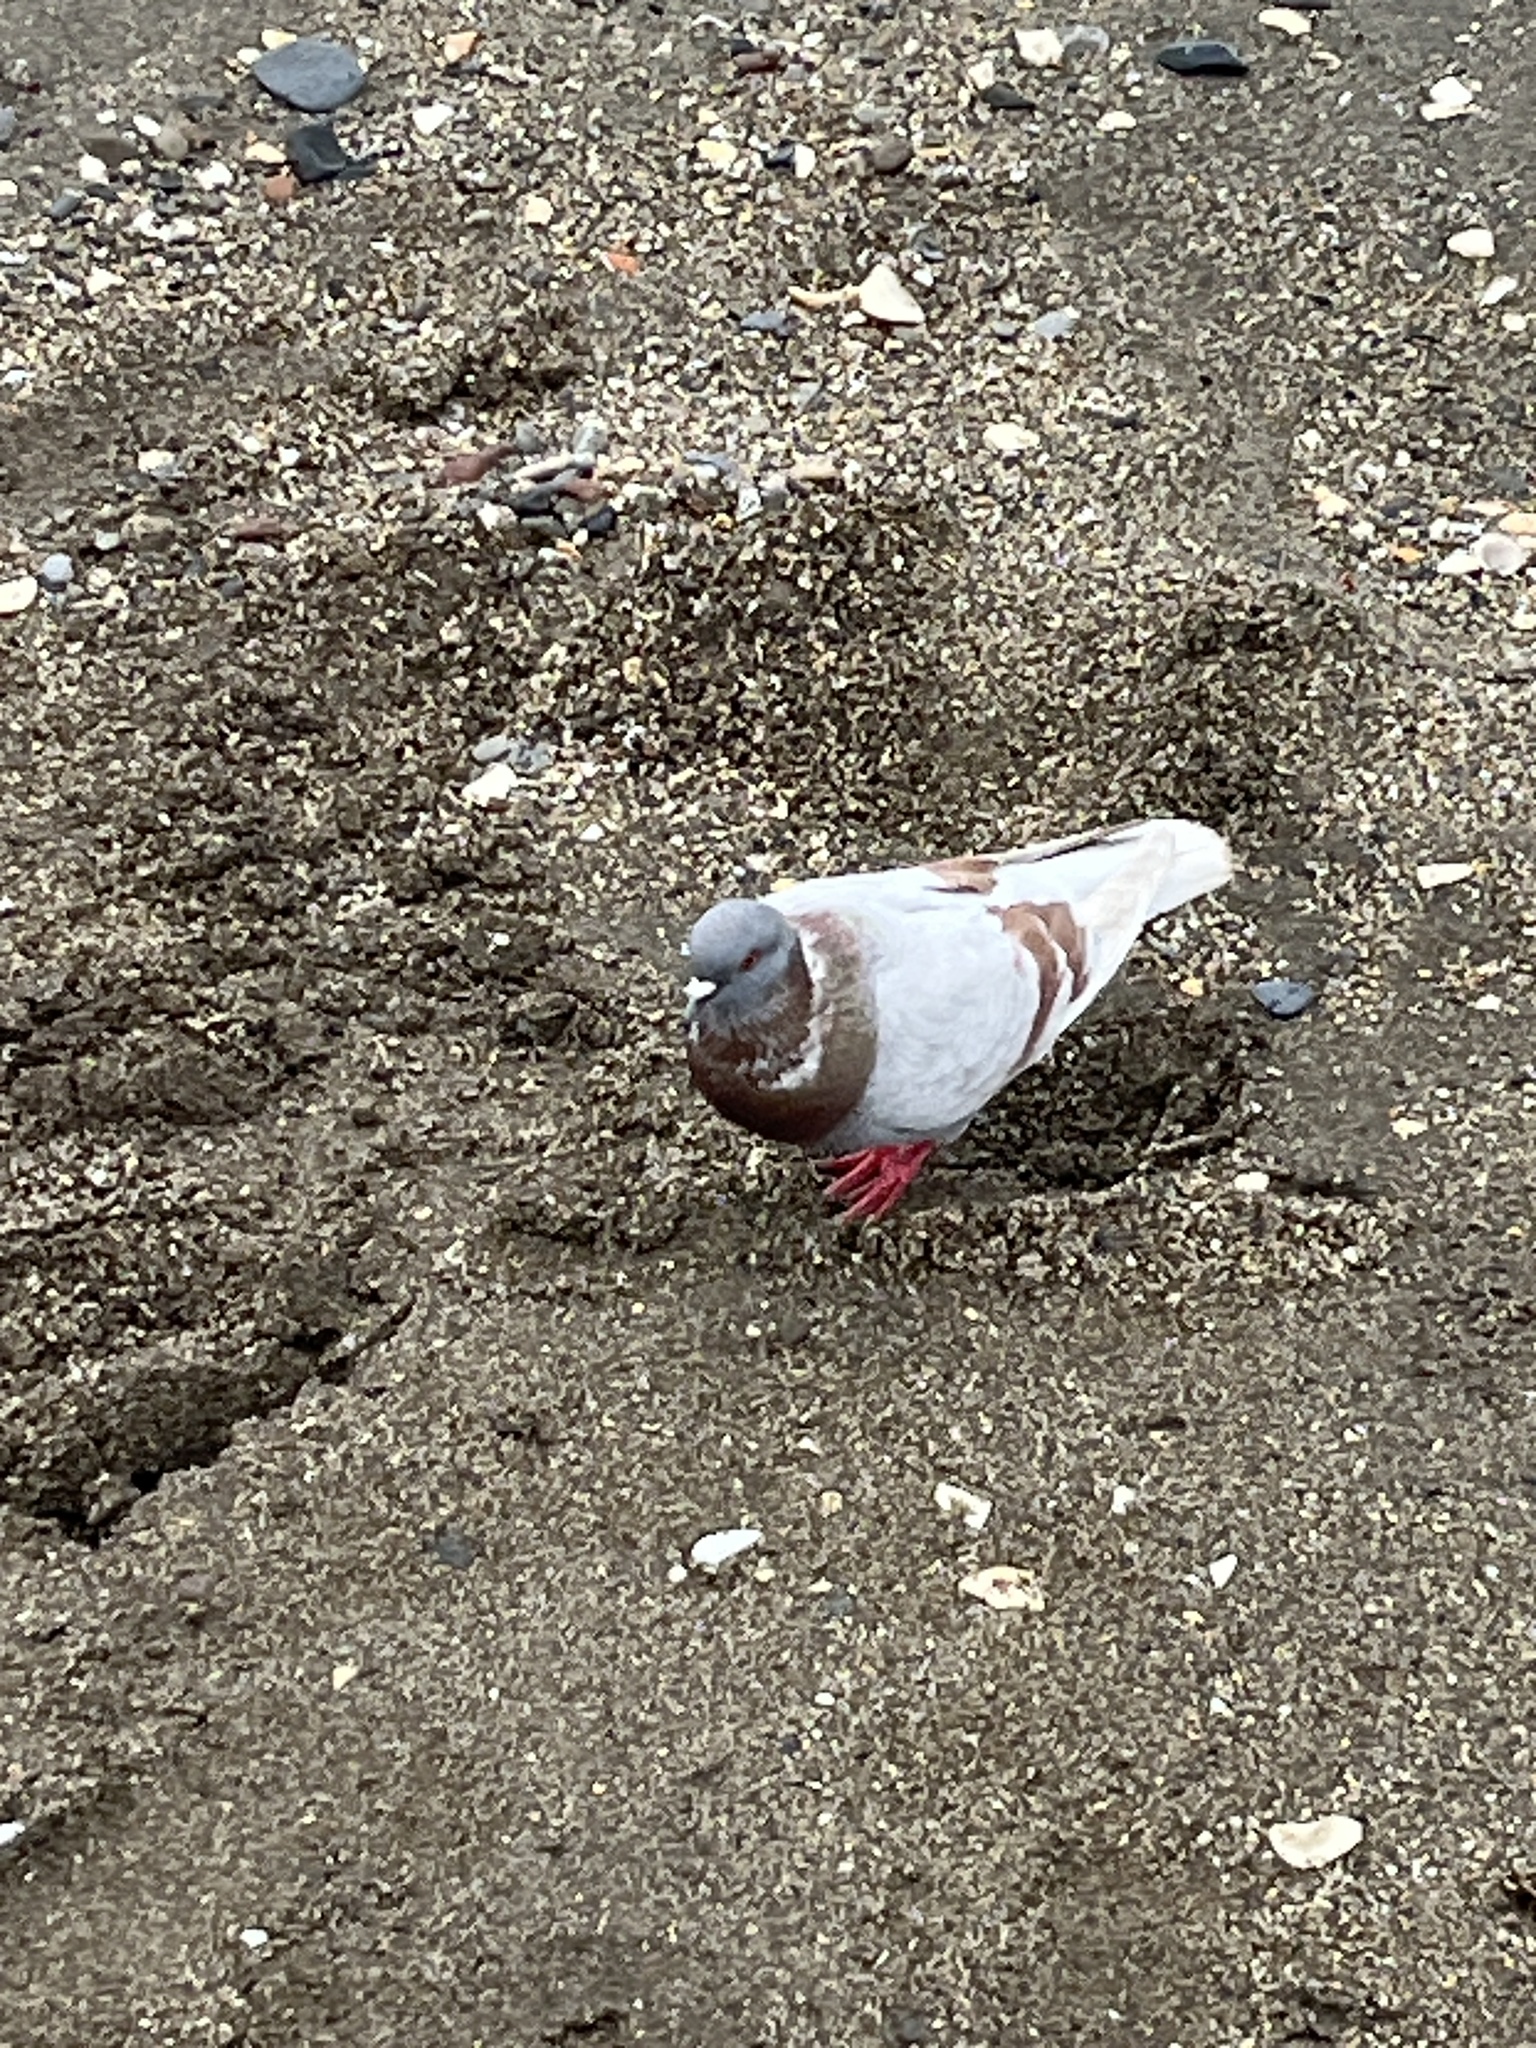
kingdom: Animalia
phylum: Chordata
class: Aves
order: Columbiformes
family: Columbidae
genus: Columba
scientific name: Columba livia
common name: Rock pigeon
